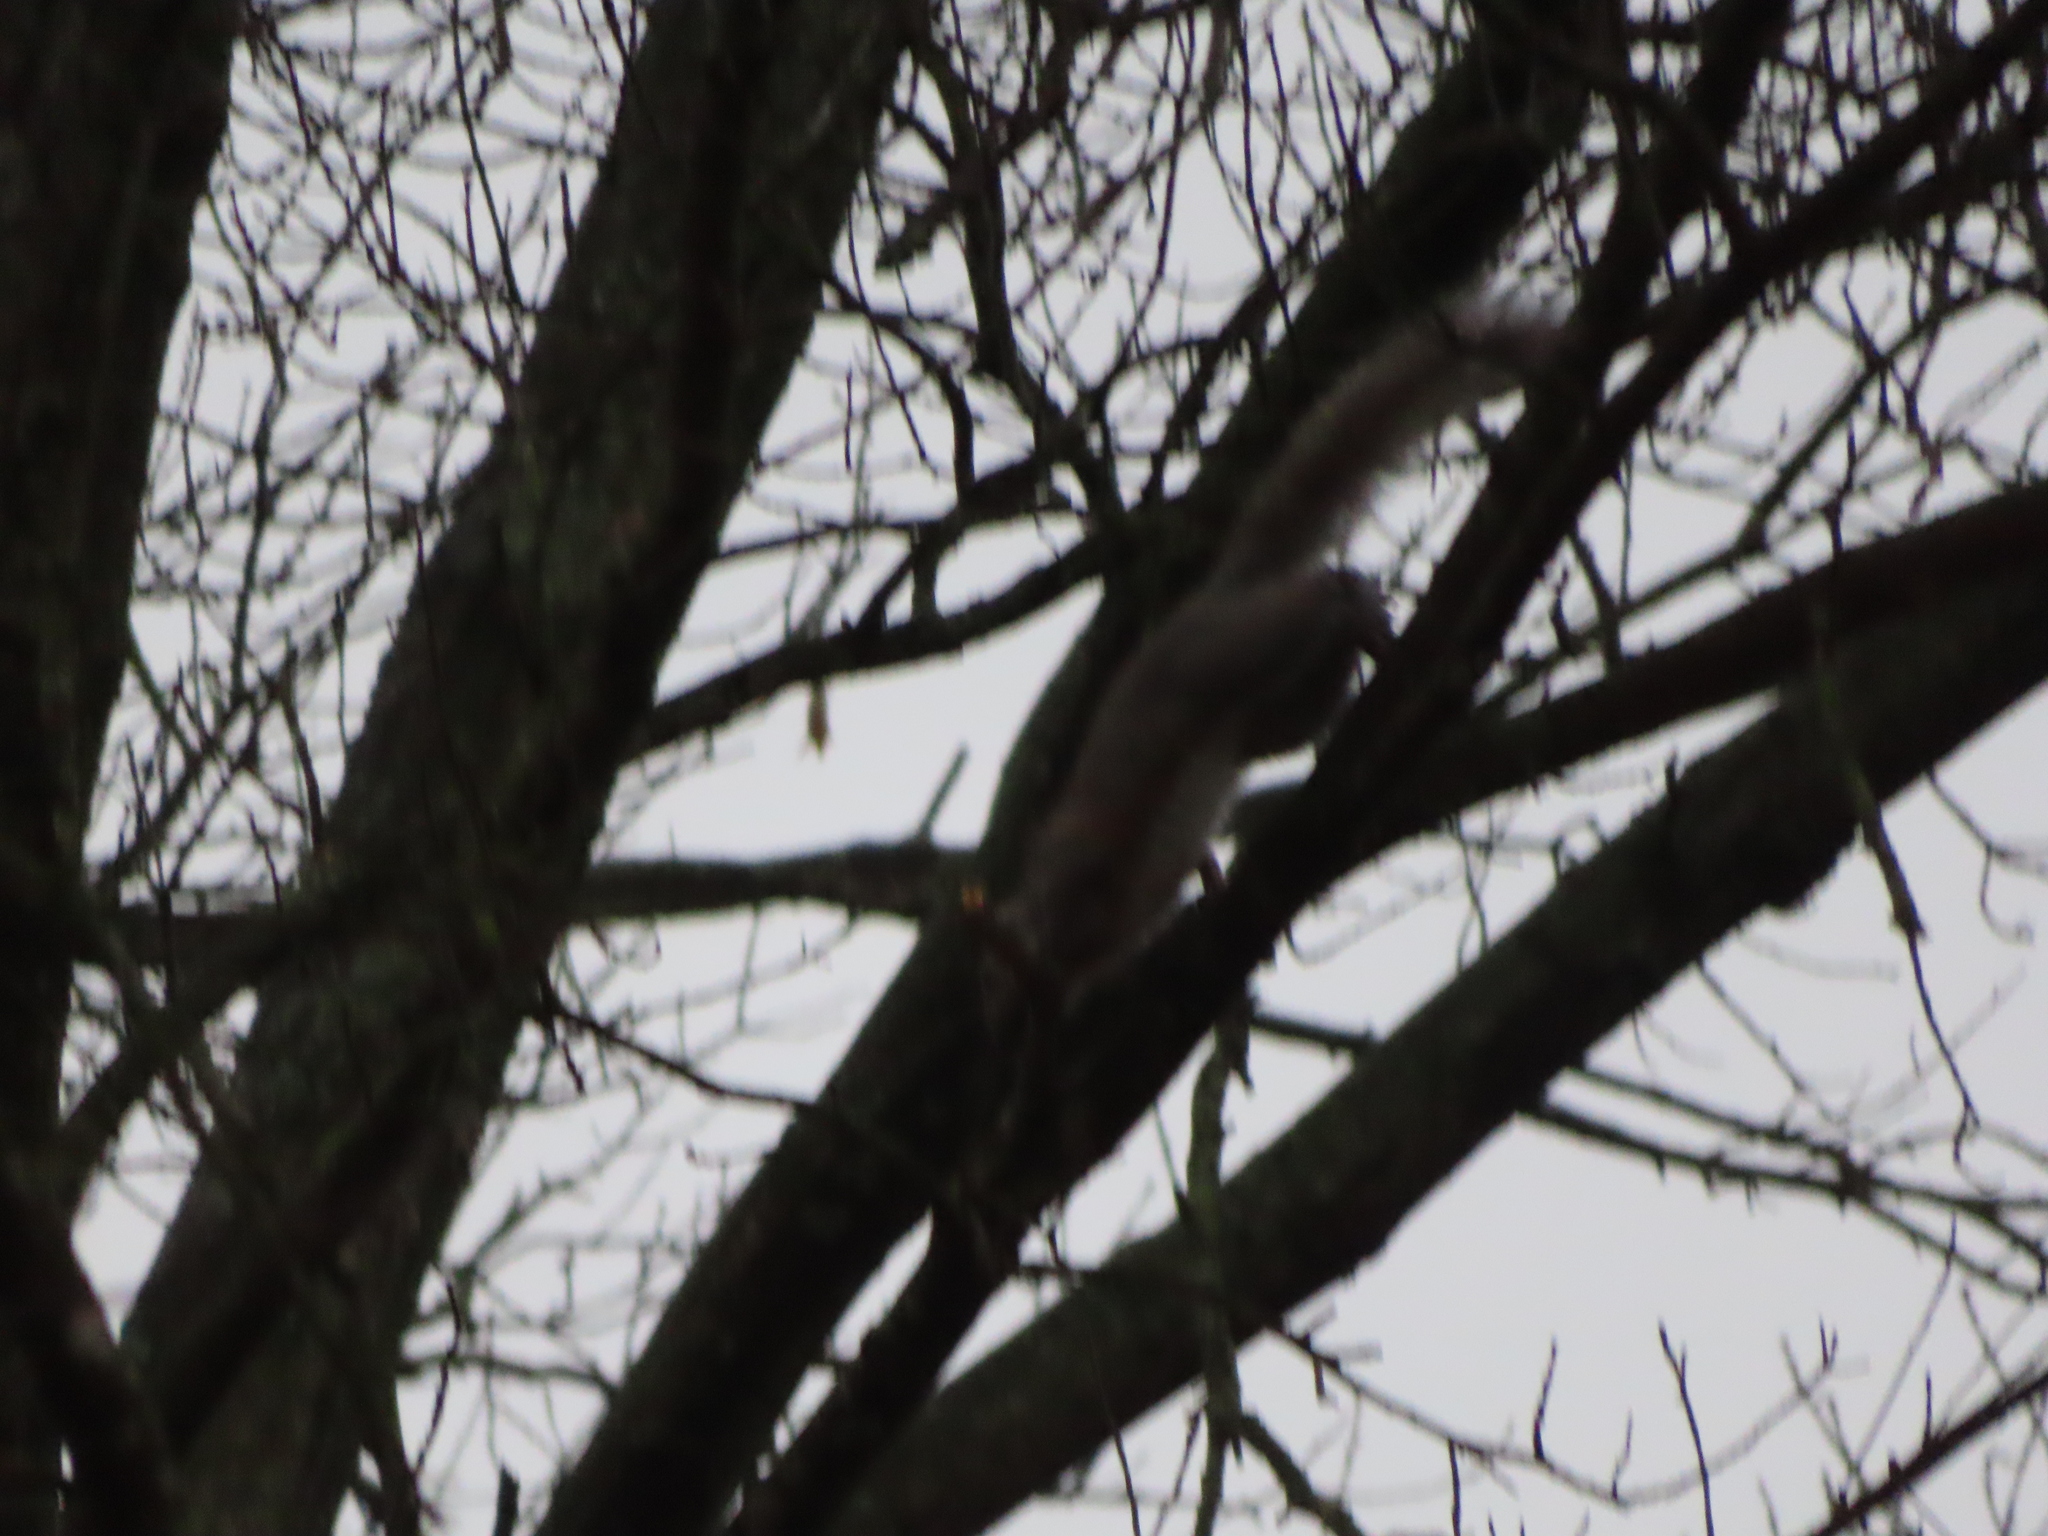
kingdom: Animalia
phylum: Chordata
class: Mammalia
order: Rodentia
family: Sciuridae
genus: Sciurus
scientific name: Sciurus carolinensis
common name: Eastern gray squirrel
